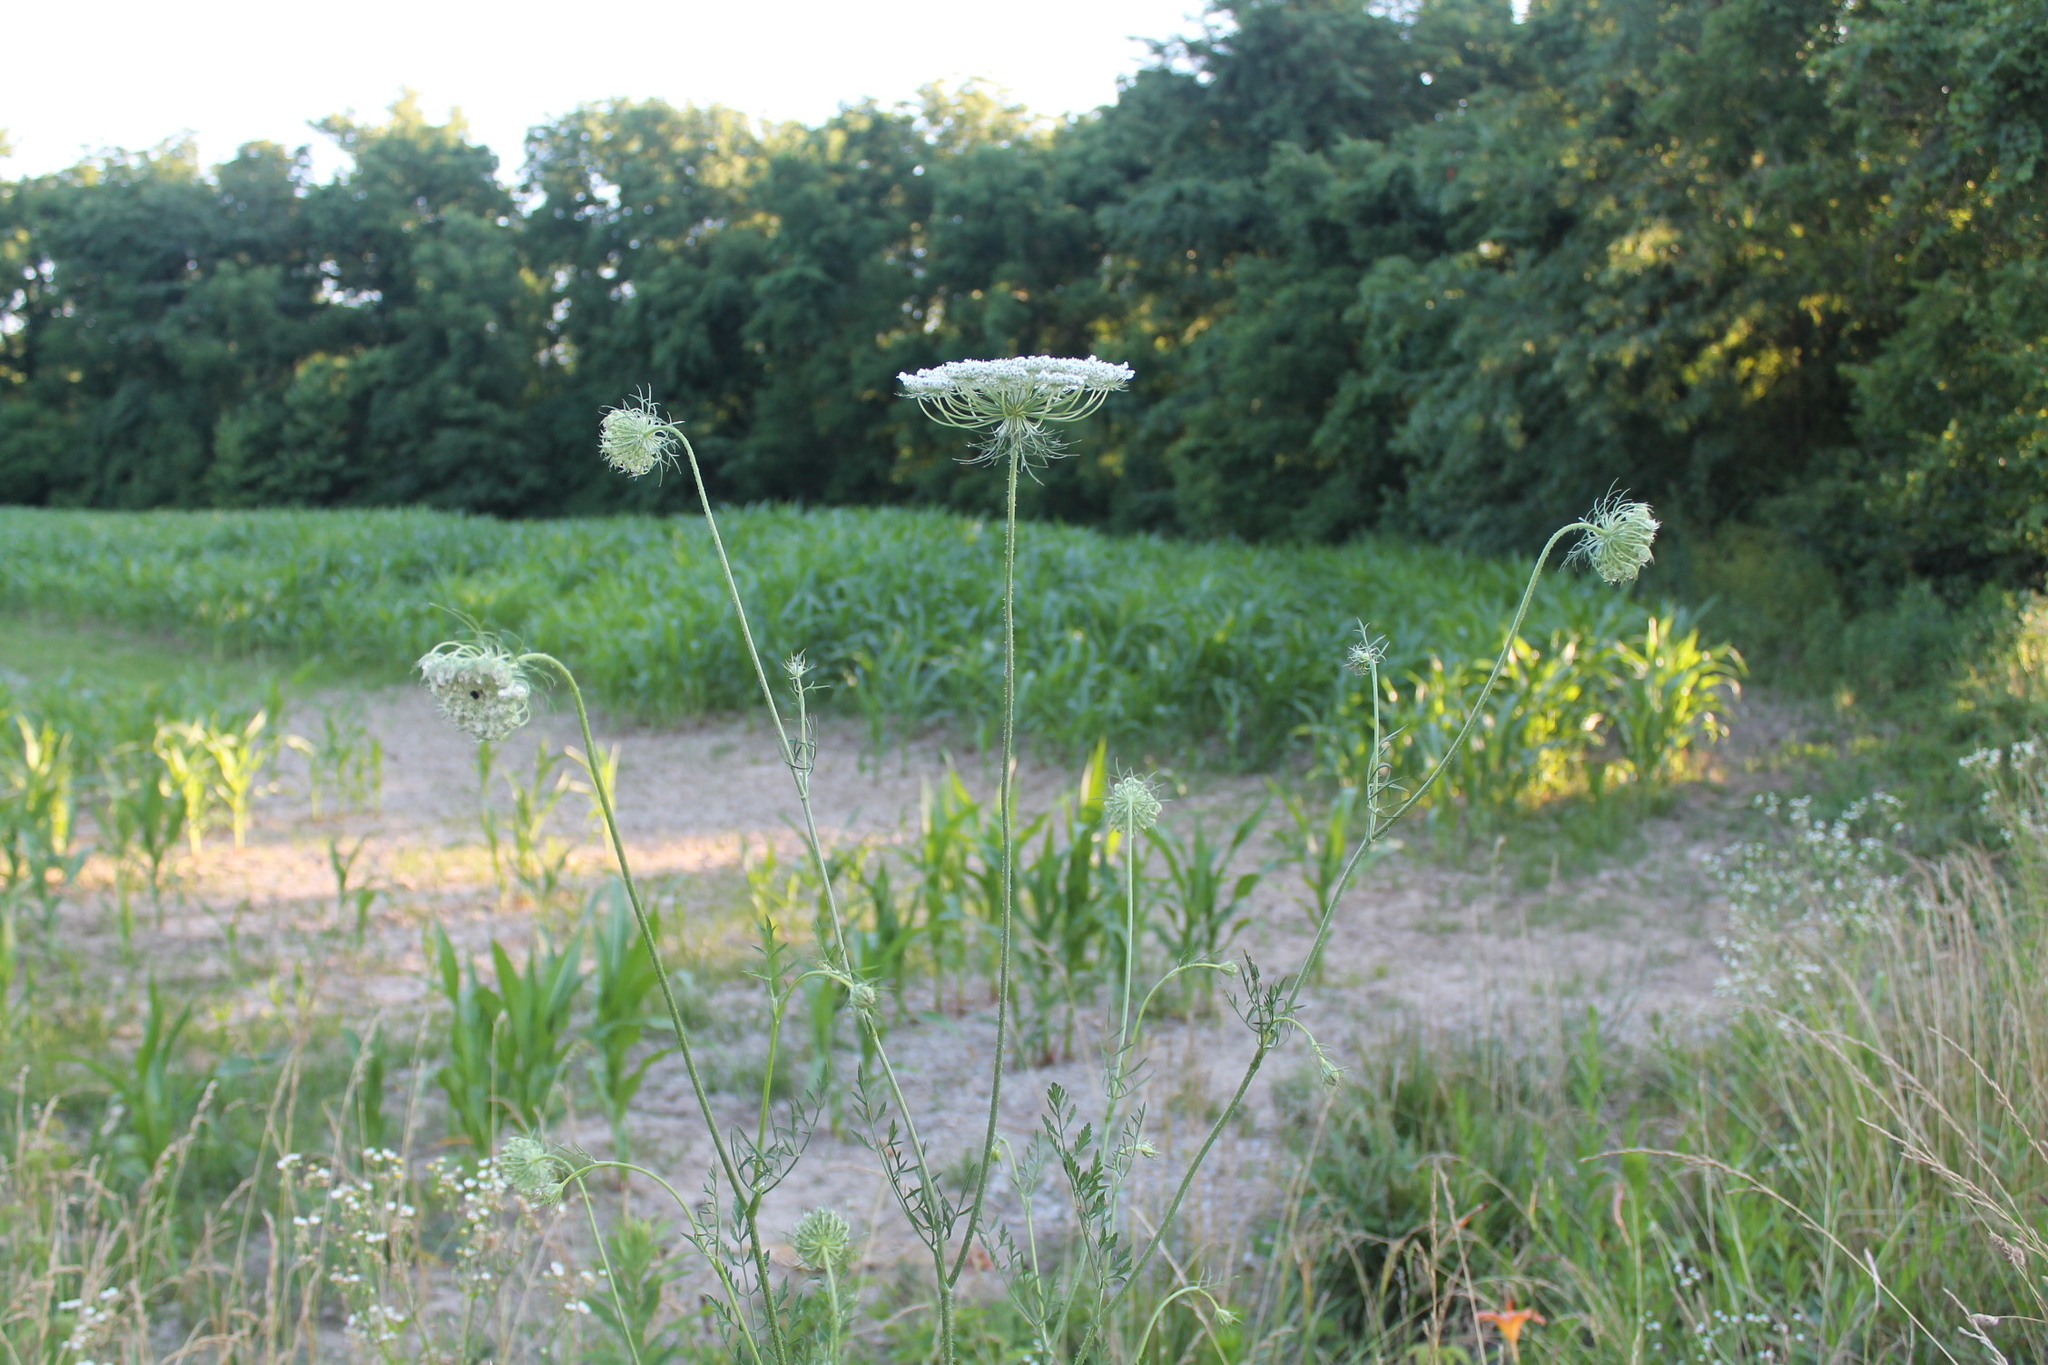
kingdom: Plantae
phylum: Tracheophyta
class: Magnoliopsida
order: Apiales
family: Apiaceae
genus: Daucus
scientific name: Daucus carota
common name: Wild carrot
